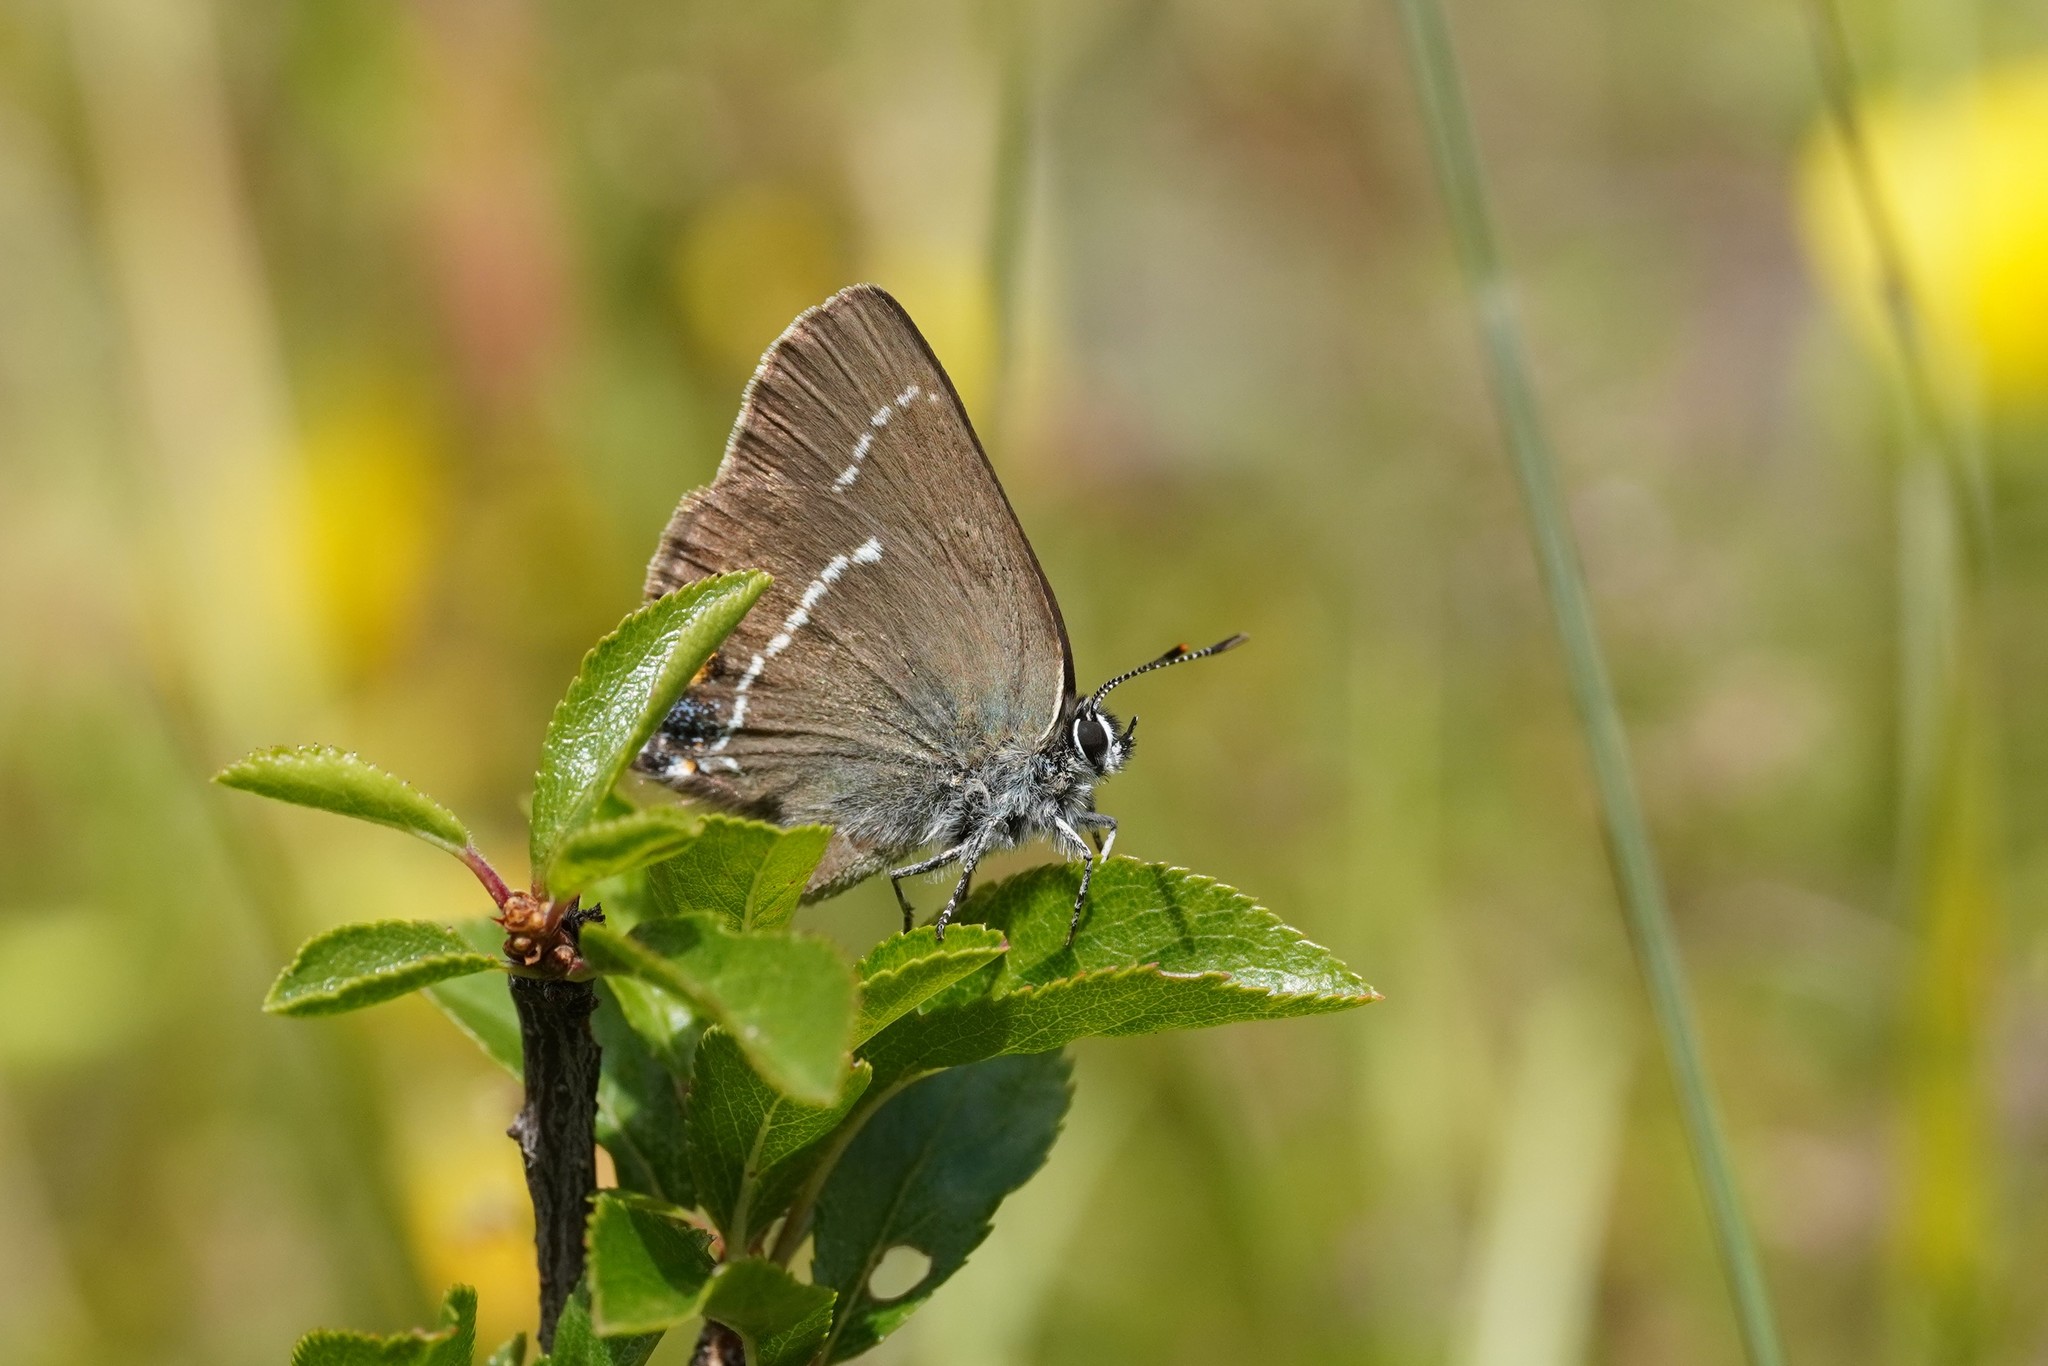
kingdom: Animalia
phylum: Arthropoda
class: Insecta
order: Lepidoptera
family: Lycaenidae
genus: Tuttiola
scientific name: Tuttiola spini
